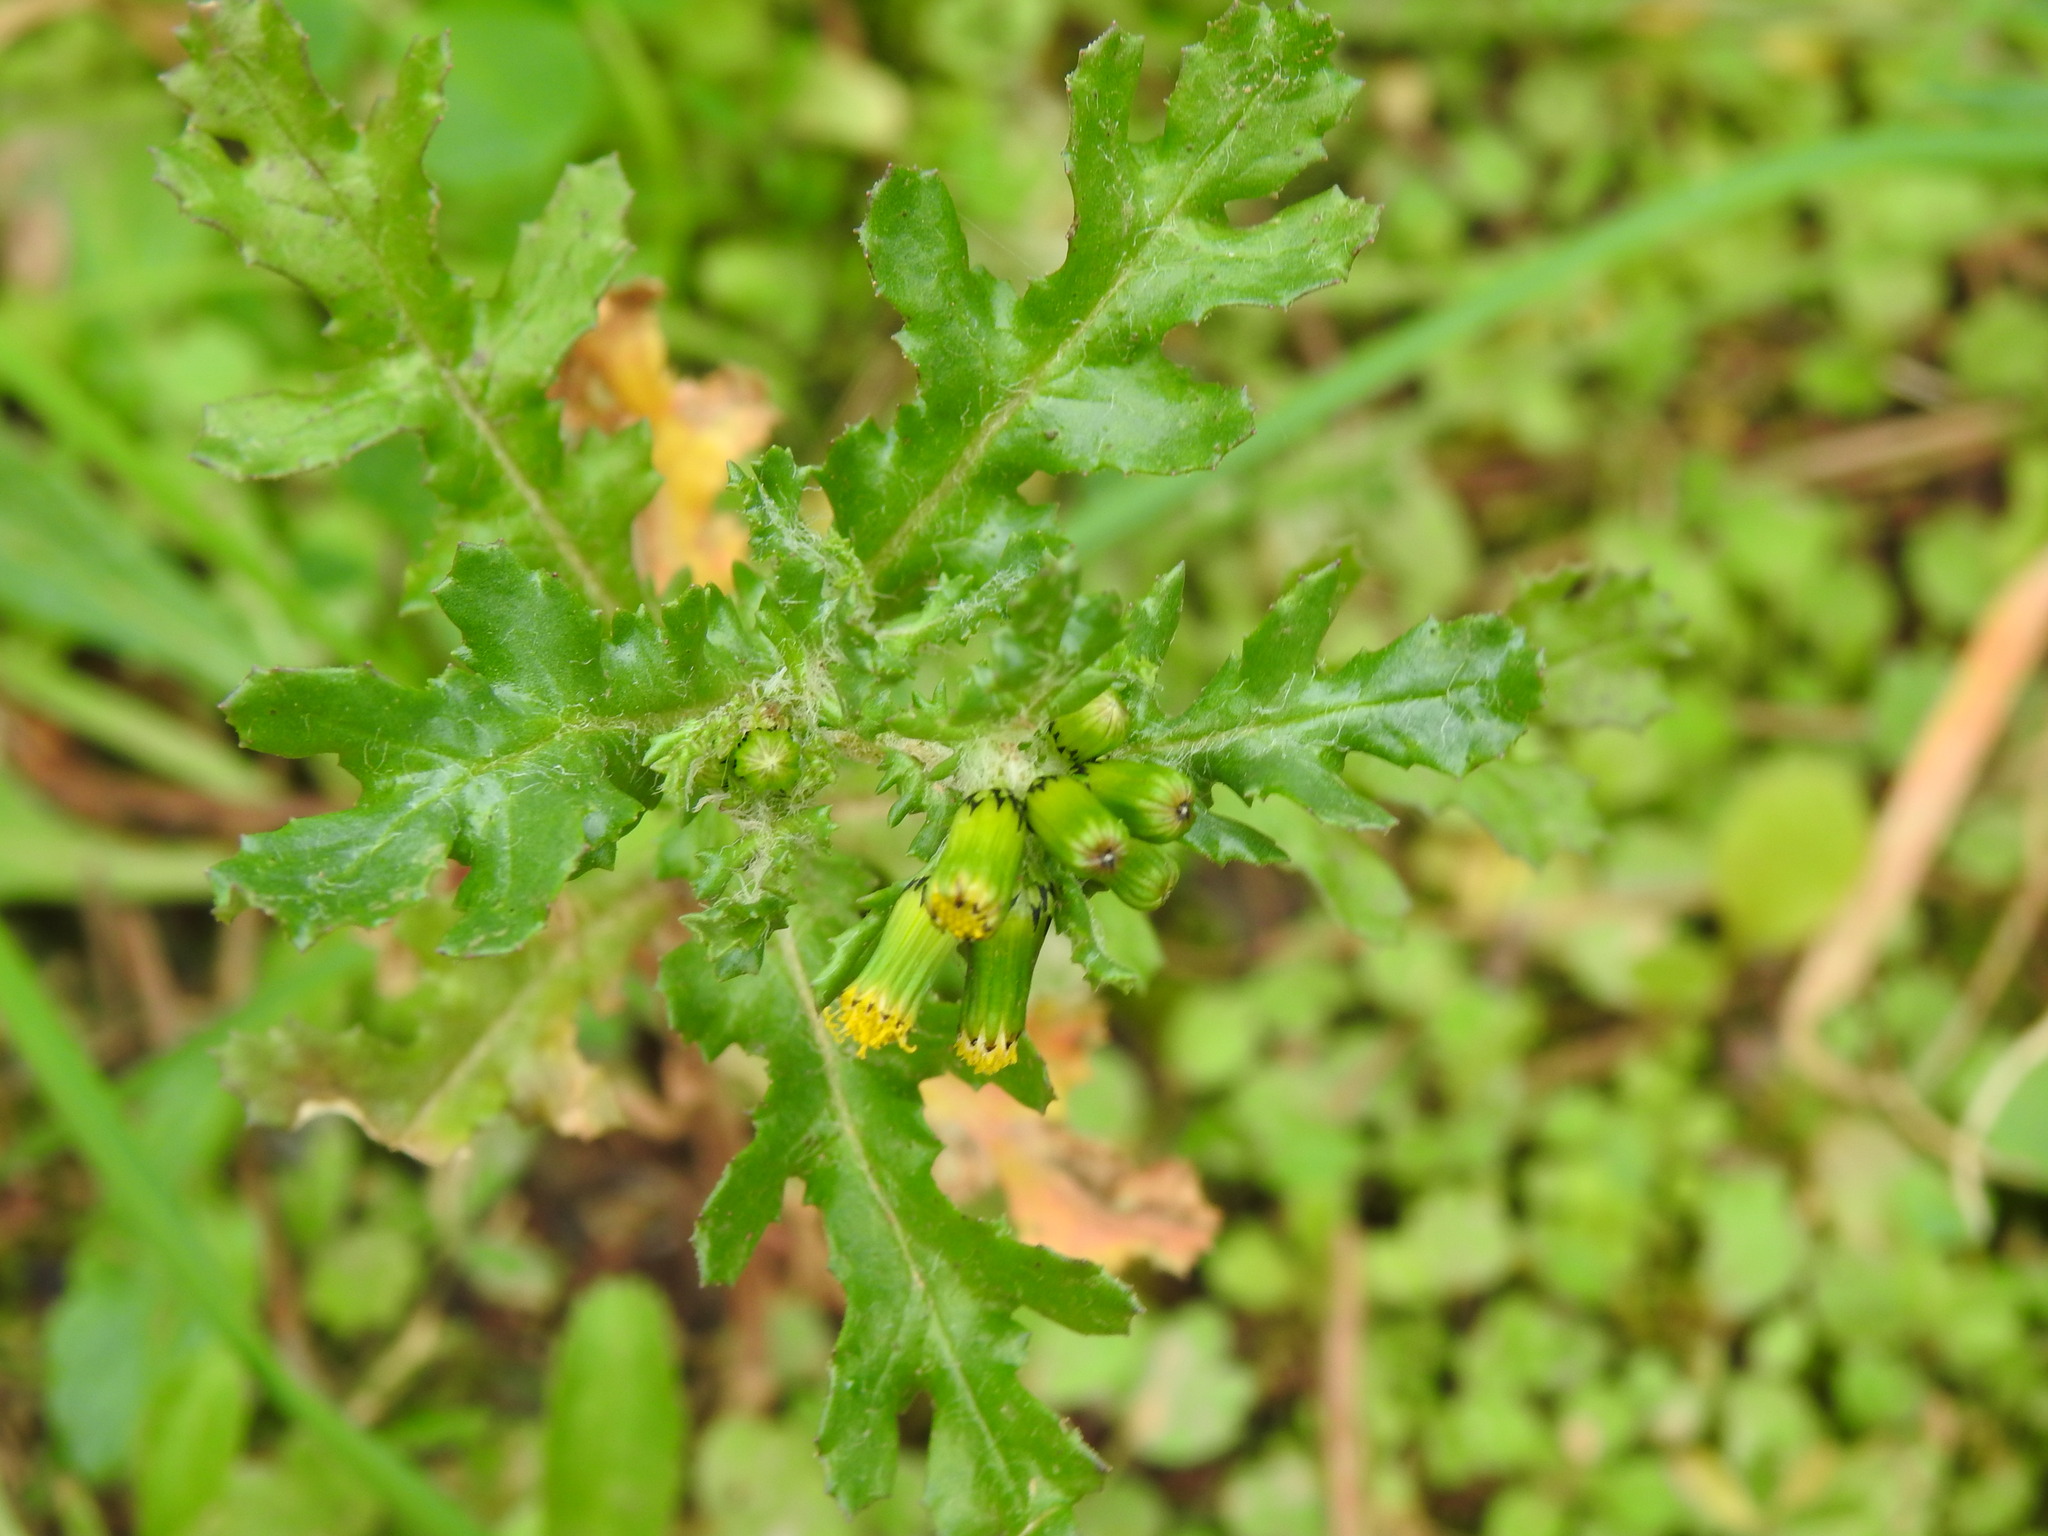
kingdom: Plantae
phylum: Tracheophyta
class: Magnoliopsida
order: Asterales
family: Asteraceae
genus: Senecio
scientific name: Senecio vulgaris
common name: Old-man-in-the-spring
